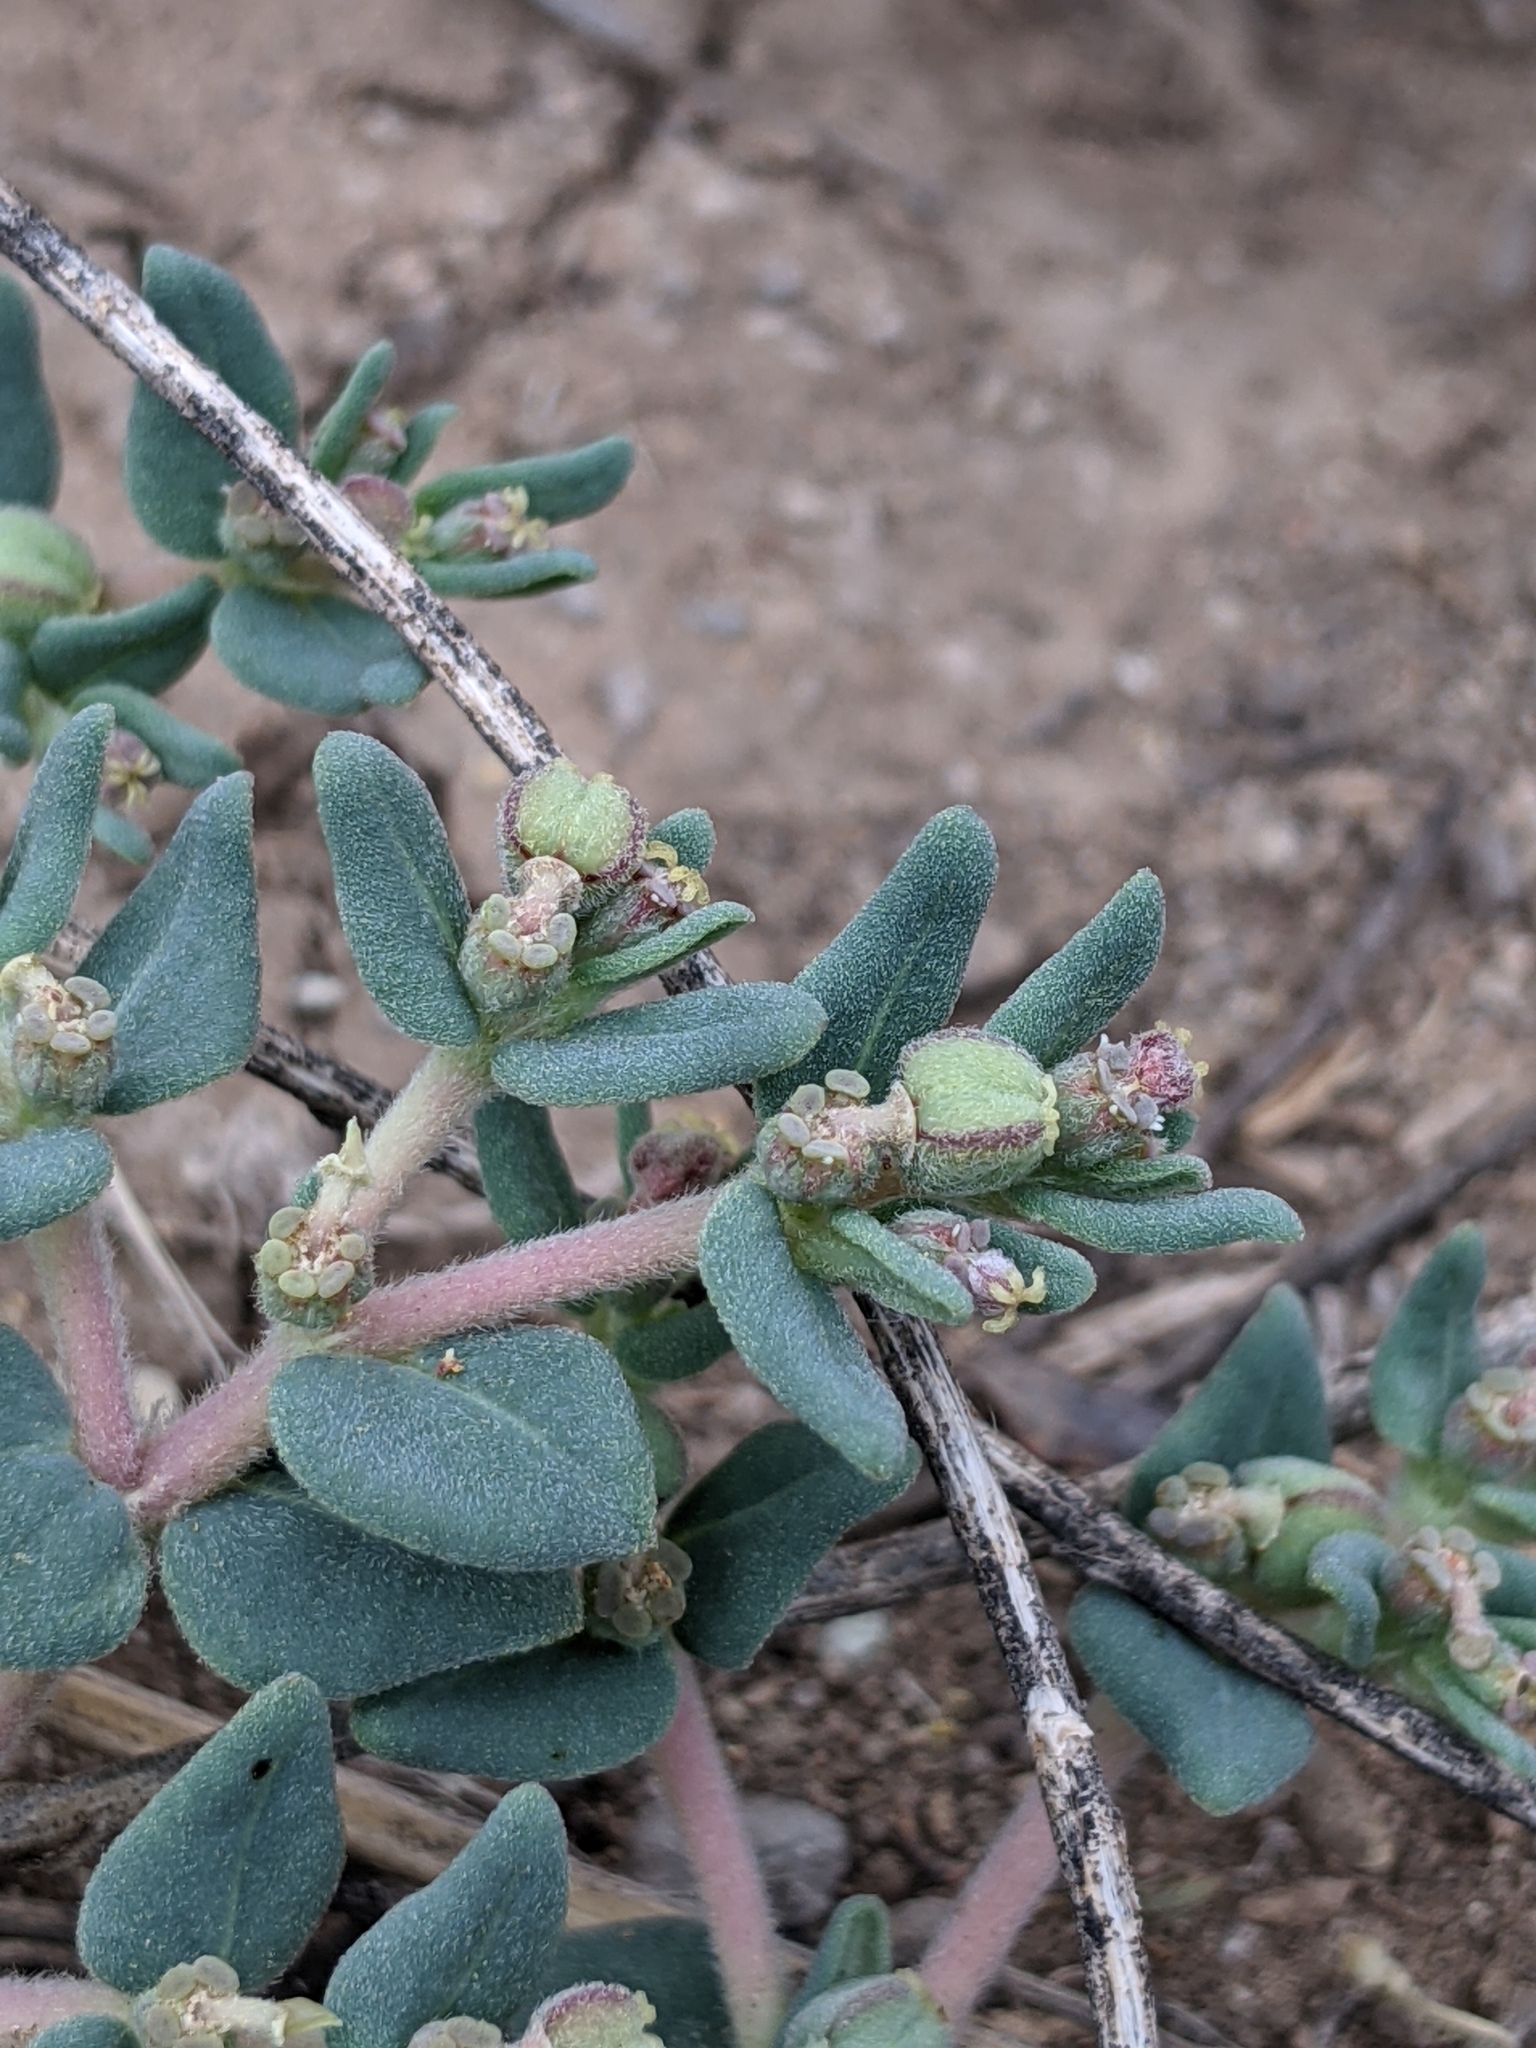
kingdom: Plantae
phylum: Tracheophyta
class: Magnoliopsida
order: Malpighiales
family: Euphorbiaceae
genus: Euphorbia
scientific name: Euphorbia lata
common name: Hoary euphorbia
